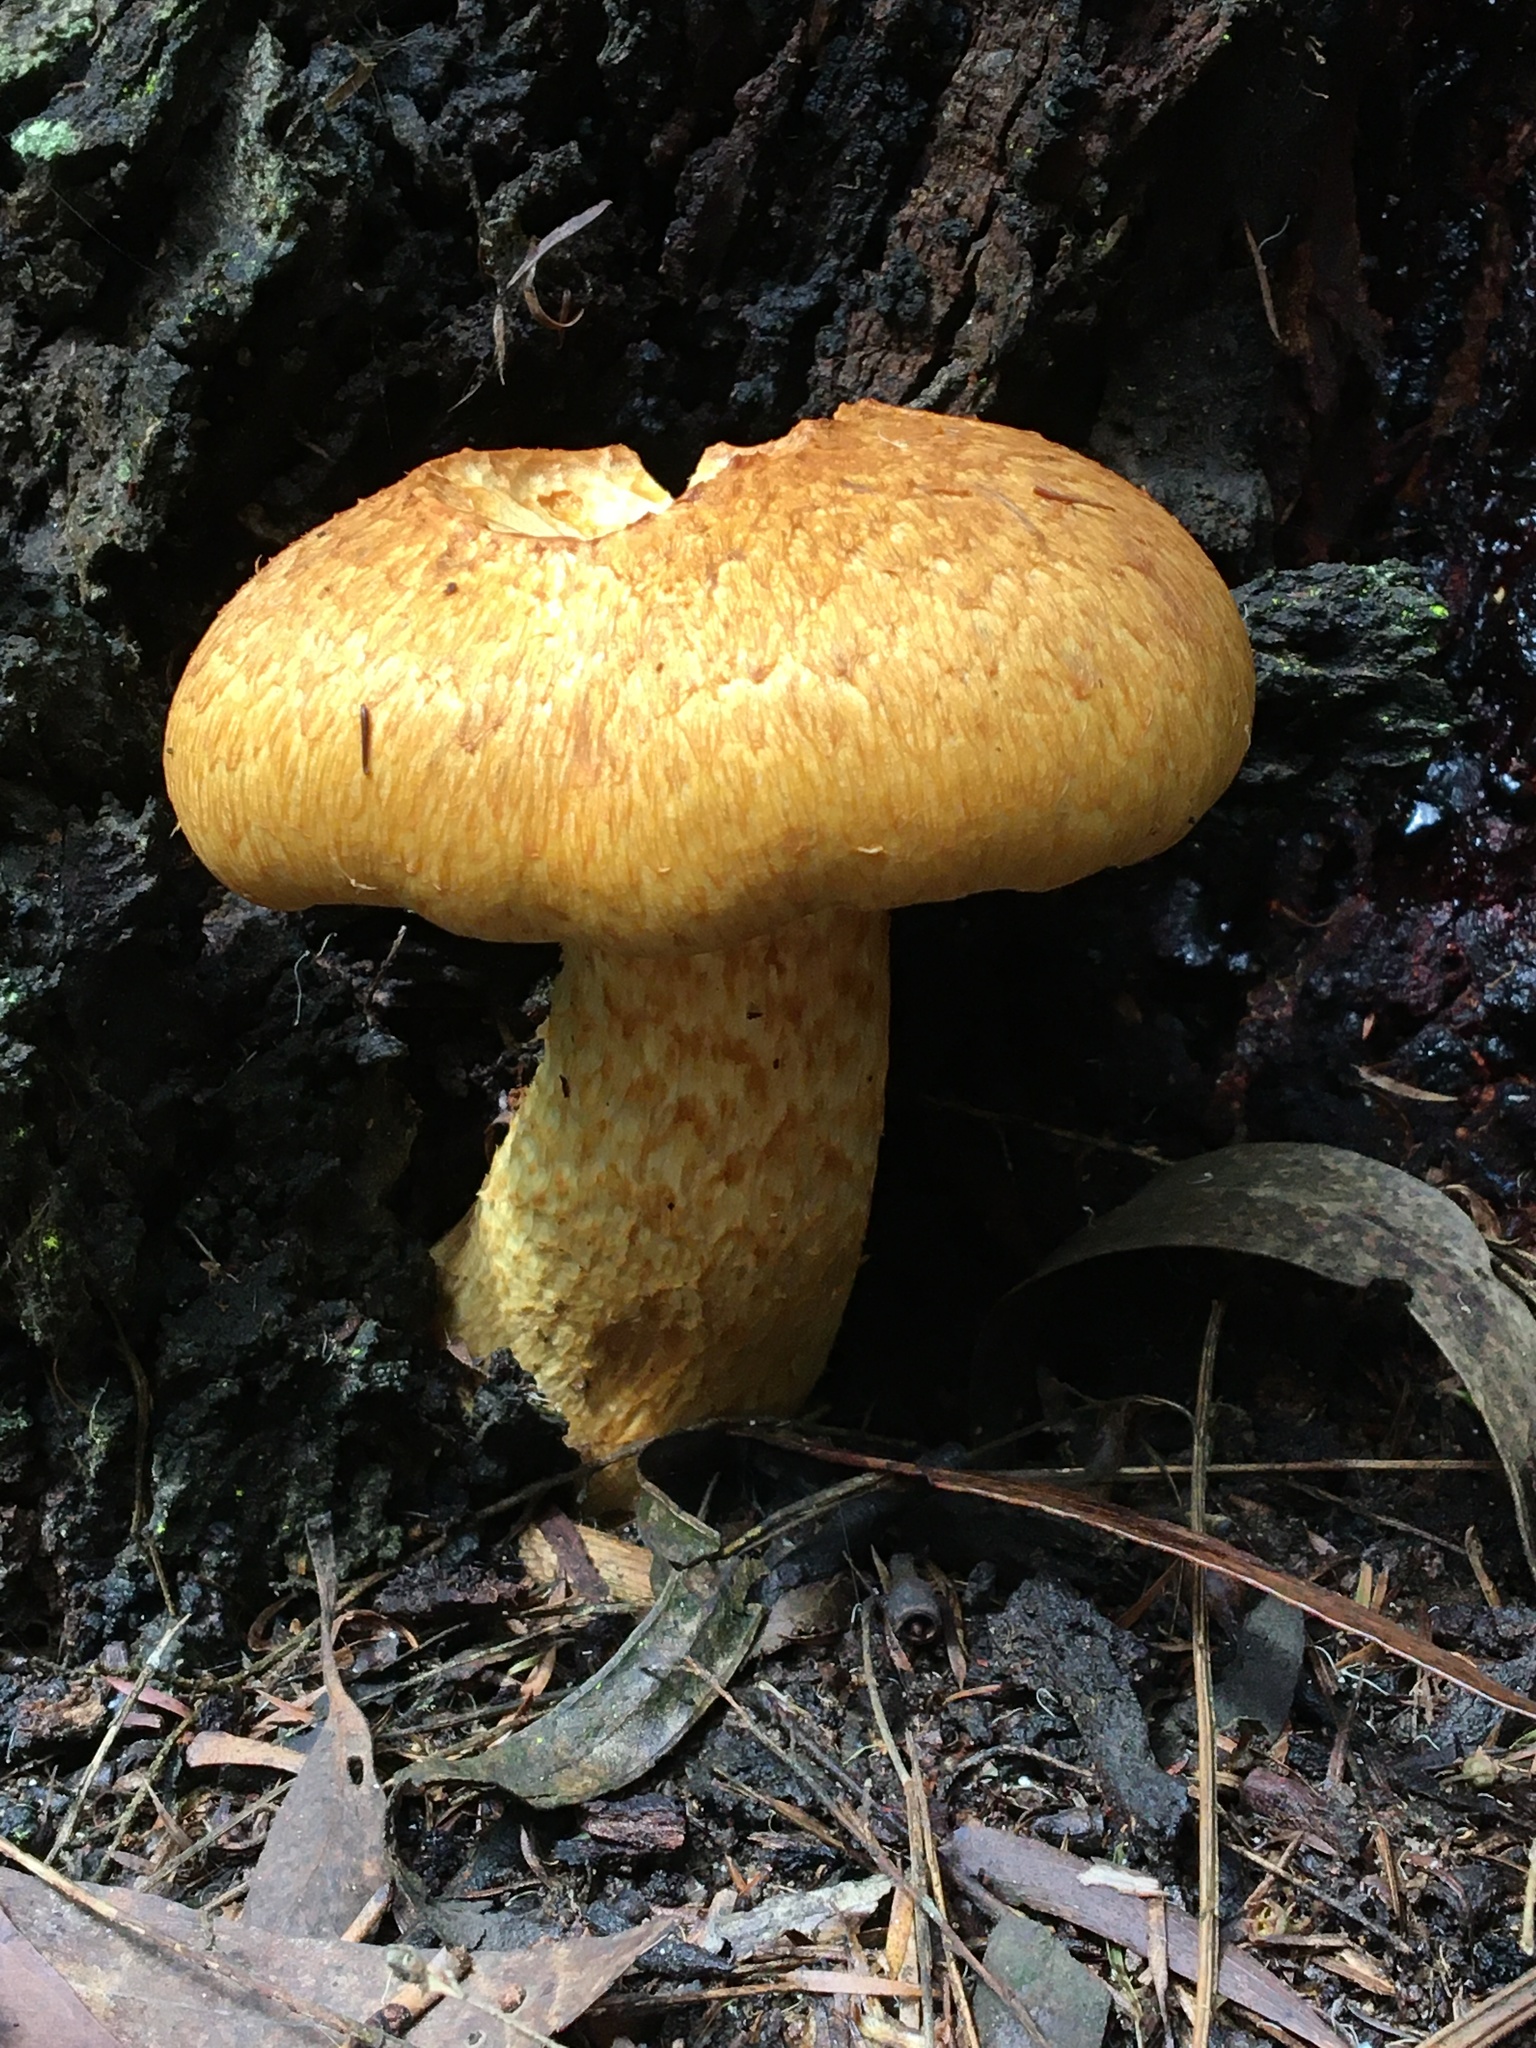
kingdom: Fungi
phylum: Basidiomycota
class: Agaricomycetes
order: Agaricales
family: Hymenogastraceae
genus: Gymnopilus
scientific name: Gymnopilus junonius
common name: Spectacular rustgill
